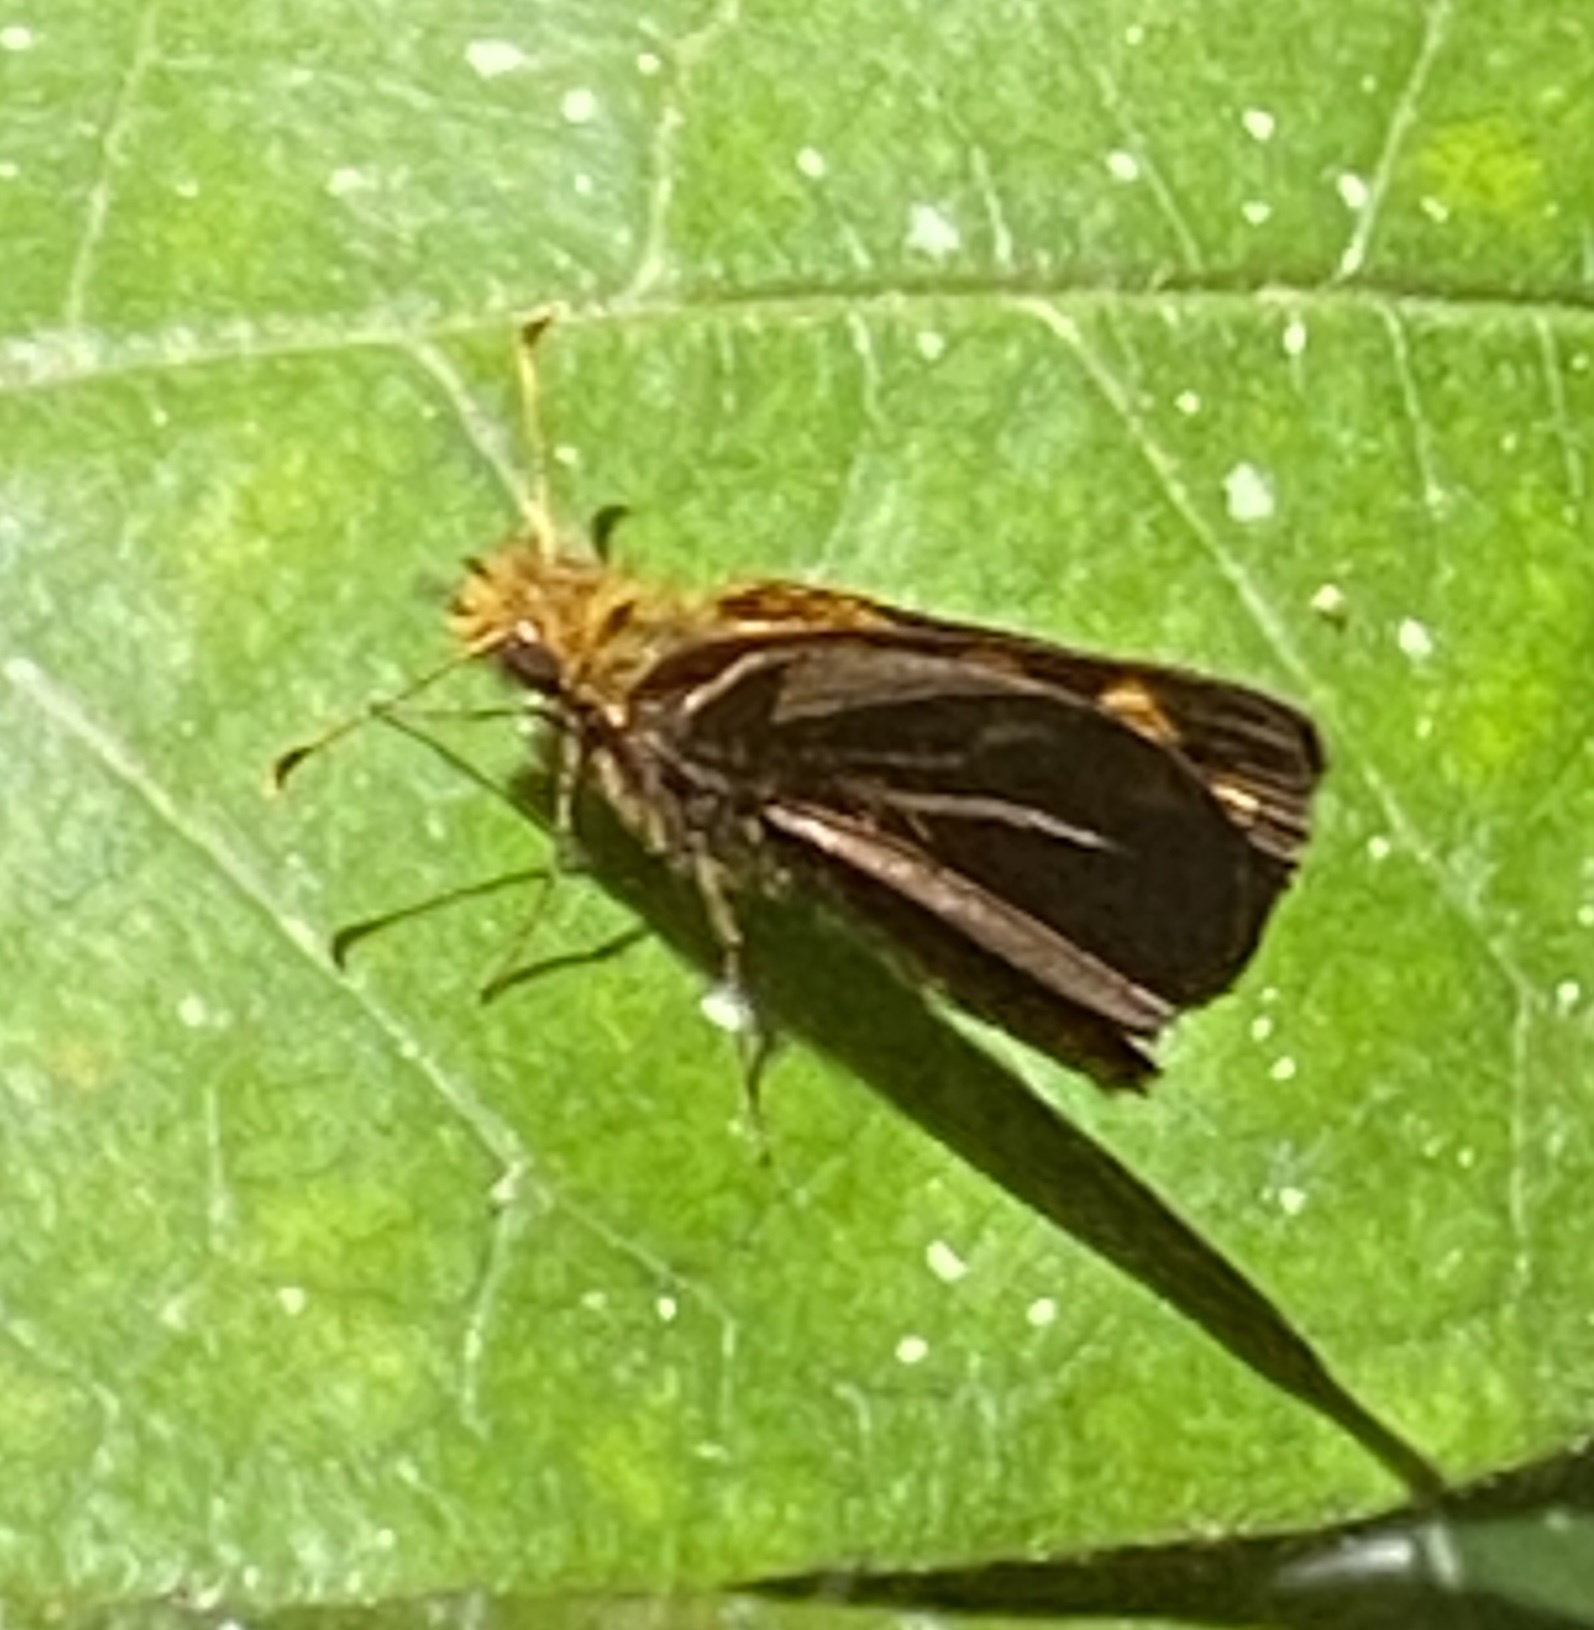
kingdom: Animalia
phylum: Arthropoda
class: Insecta
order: Lepidoptera
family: Hesperiidae
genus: Metisella
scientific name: Metisella metis
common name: Western gold-spotted sylph
